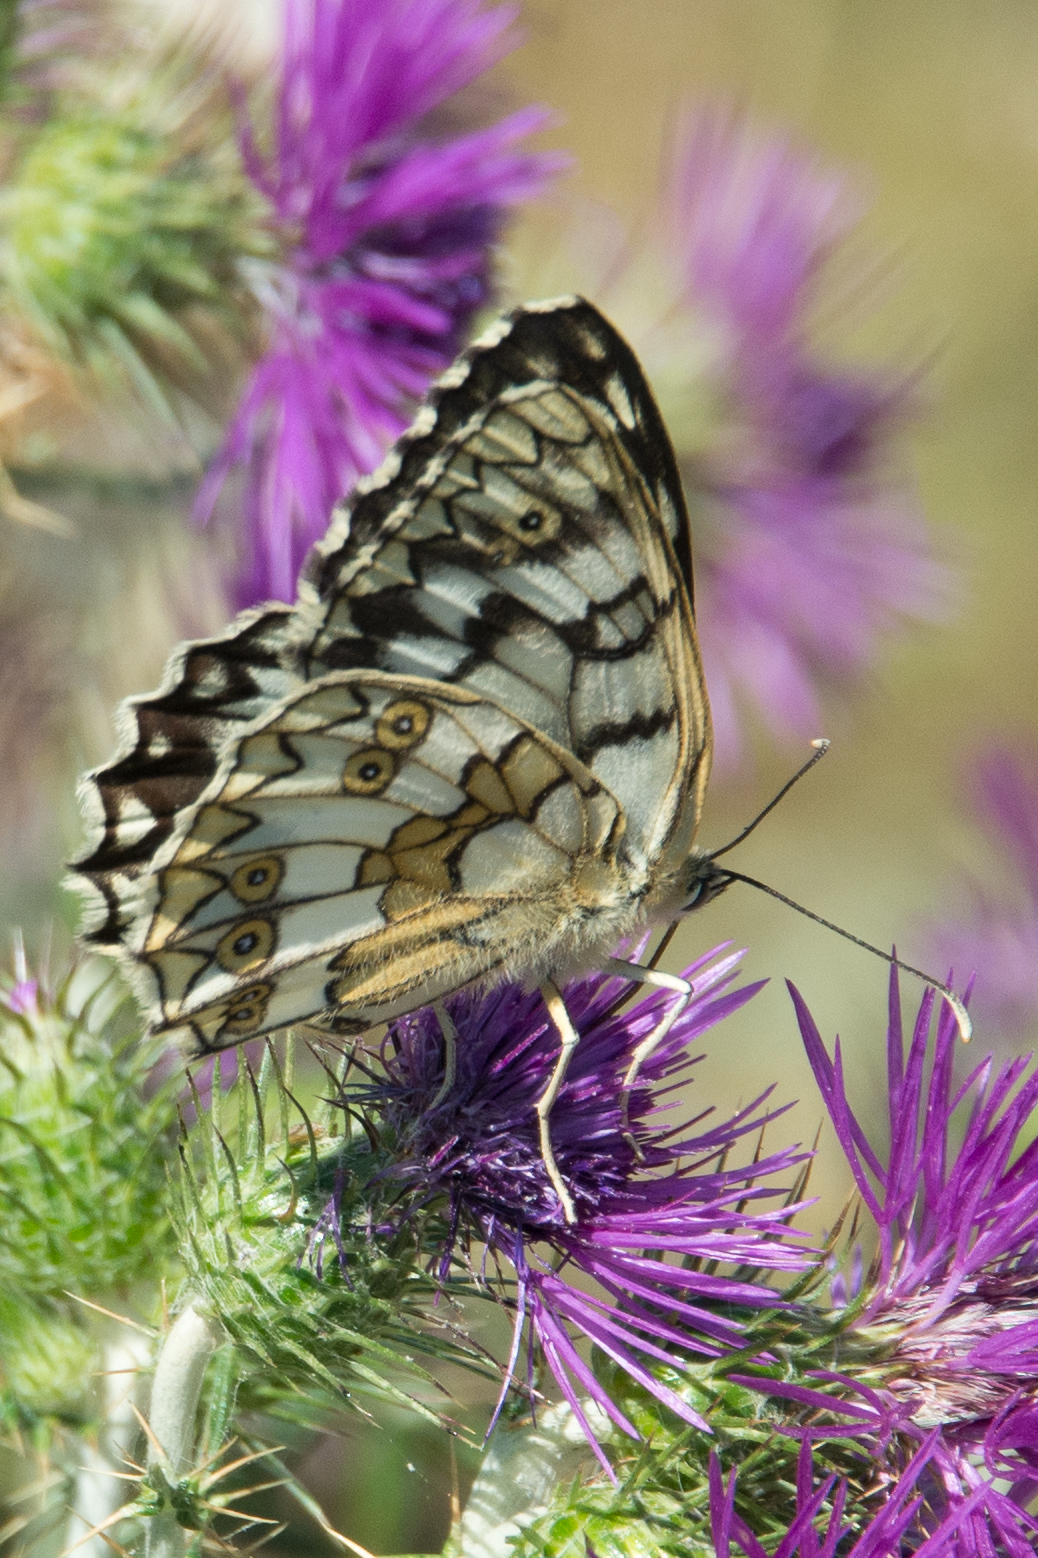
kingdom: Animalia
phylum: Arthropoda
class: Insecta
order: Lepidoptera
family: Nymphalidae
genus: Melanargia
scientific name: Melanargia japygia
